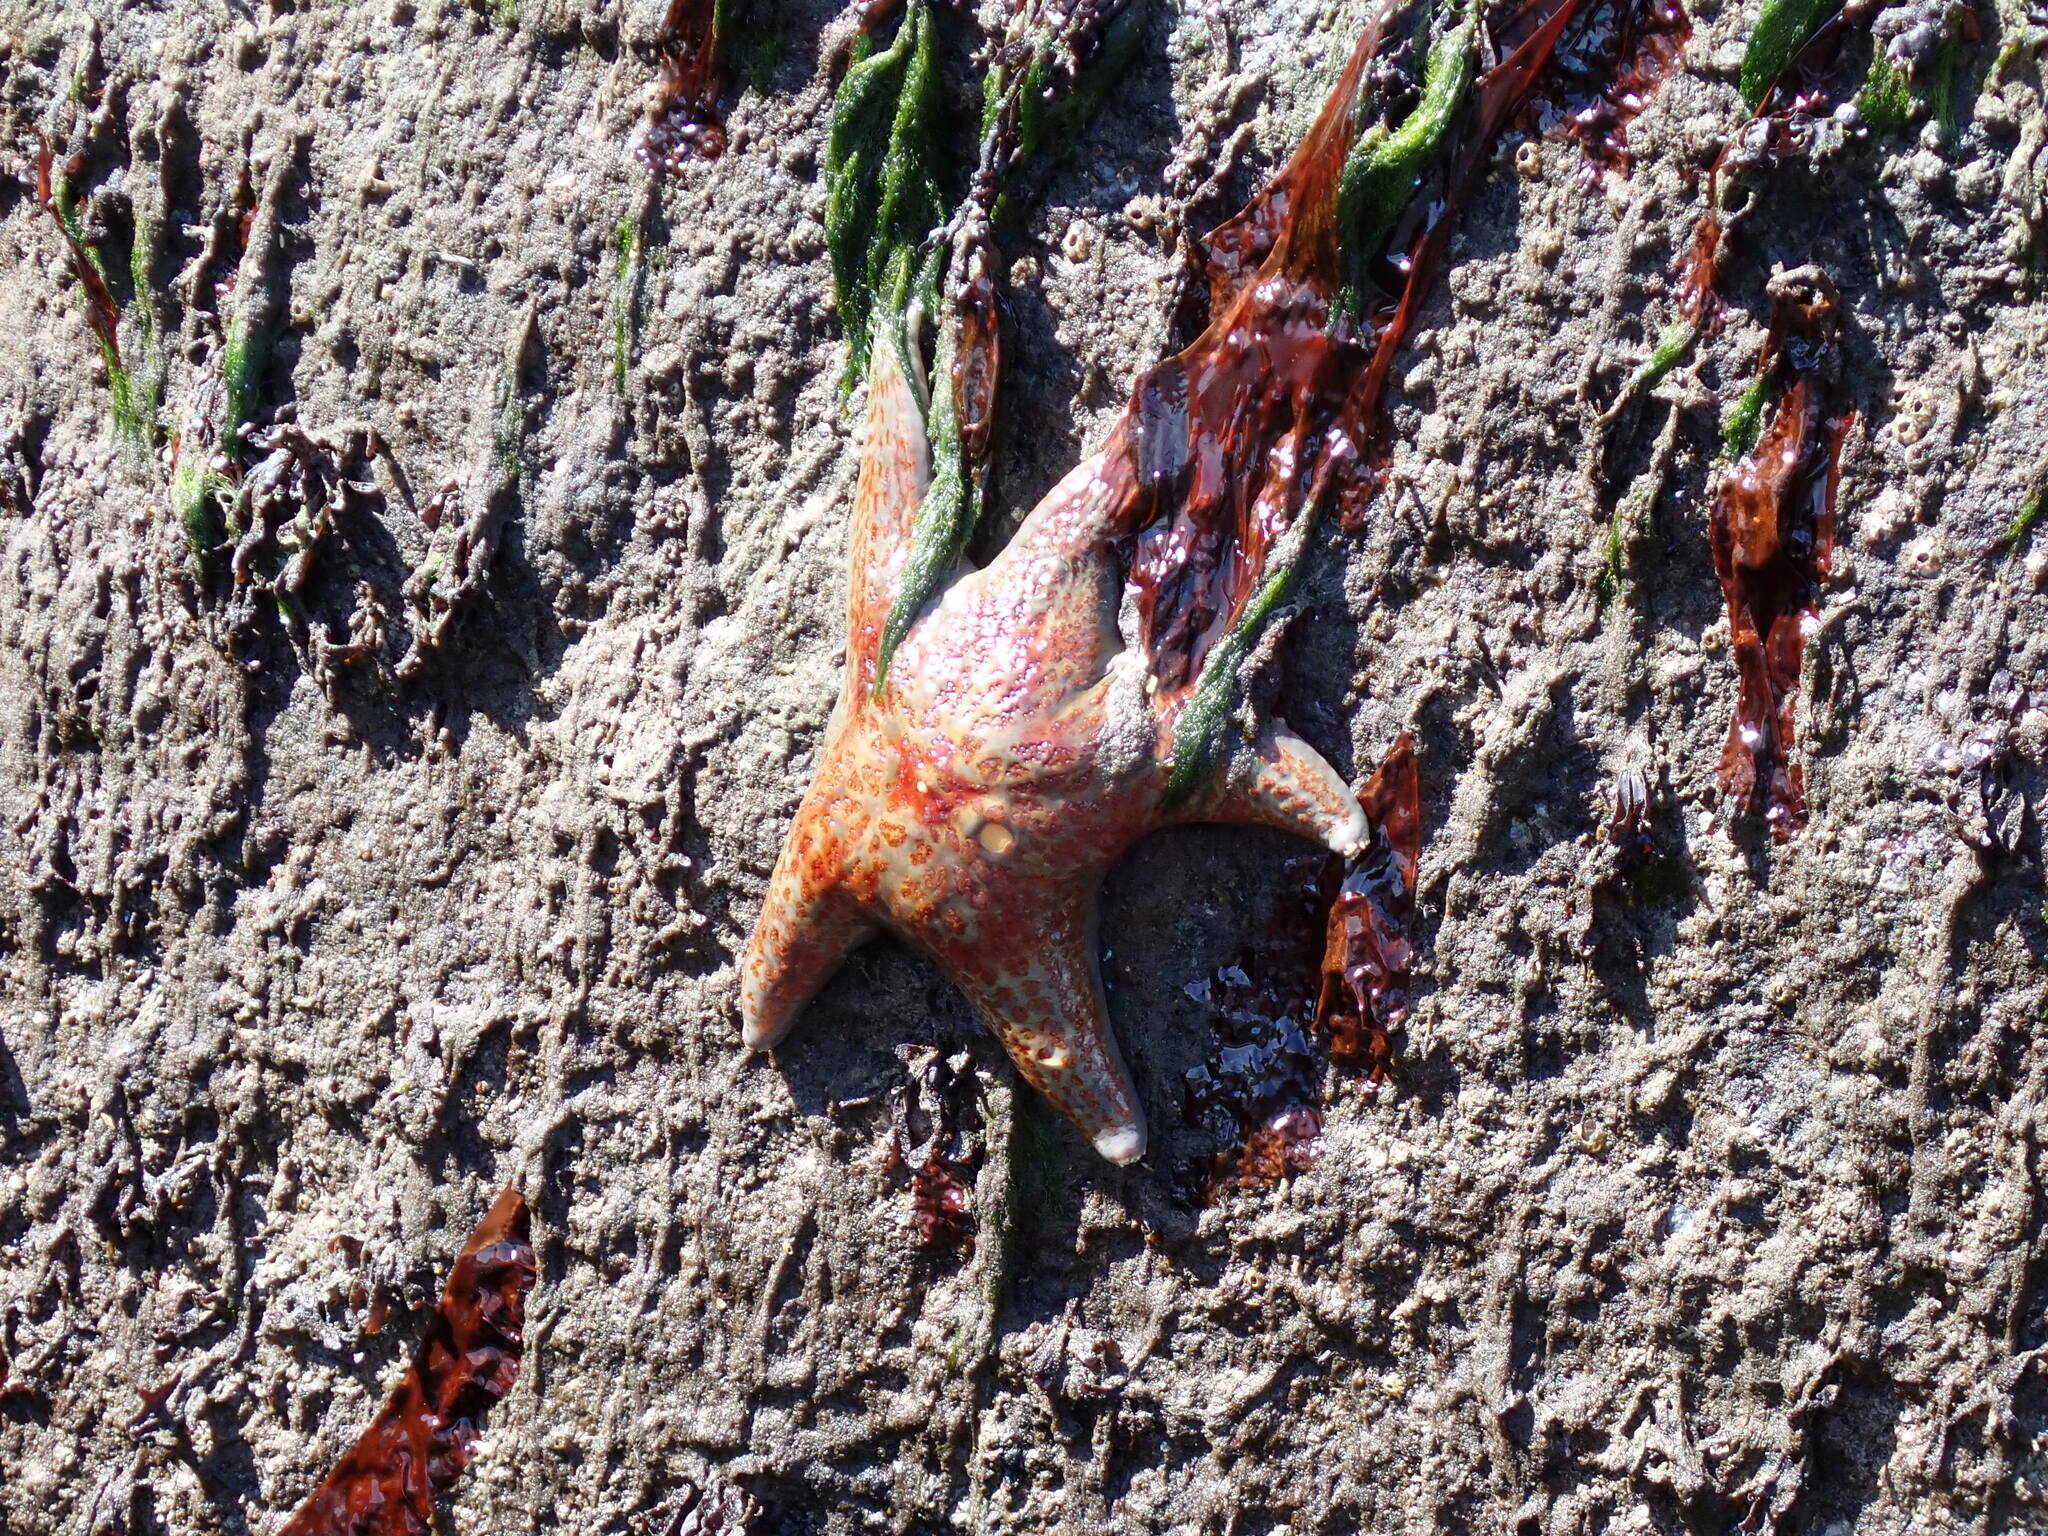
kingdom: Animalia
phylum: Echinodermata
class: Asteroidea
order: Valvatida
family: Asteropseidae
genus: Dermasterias
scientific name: Dermasterias imbricata
